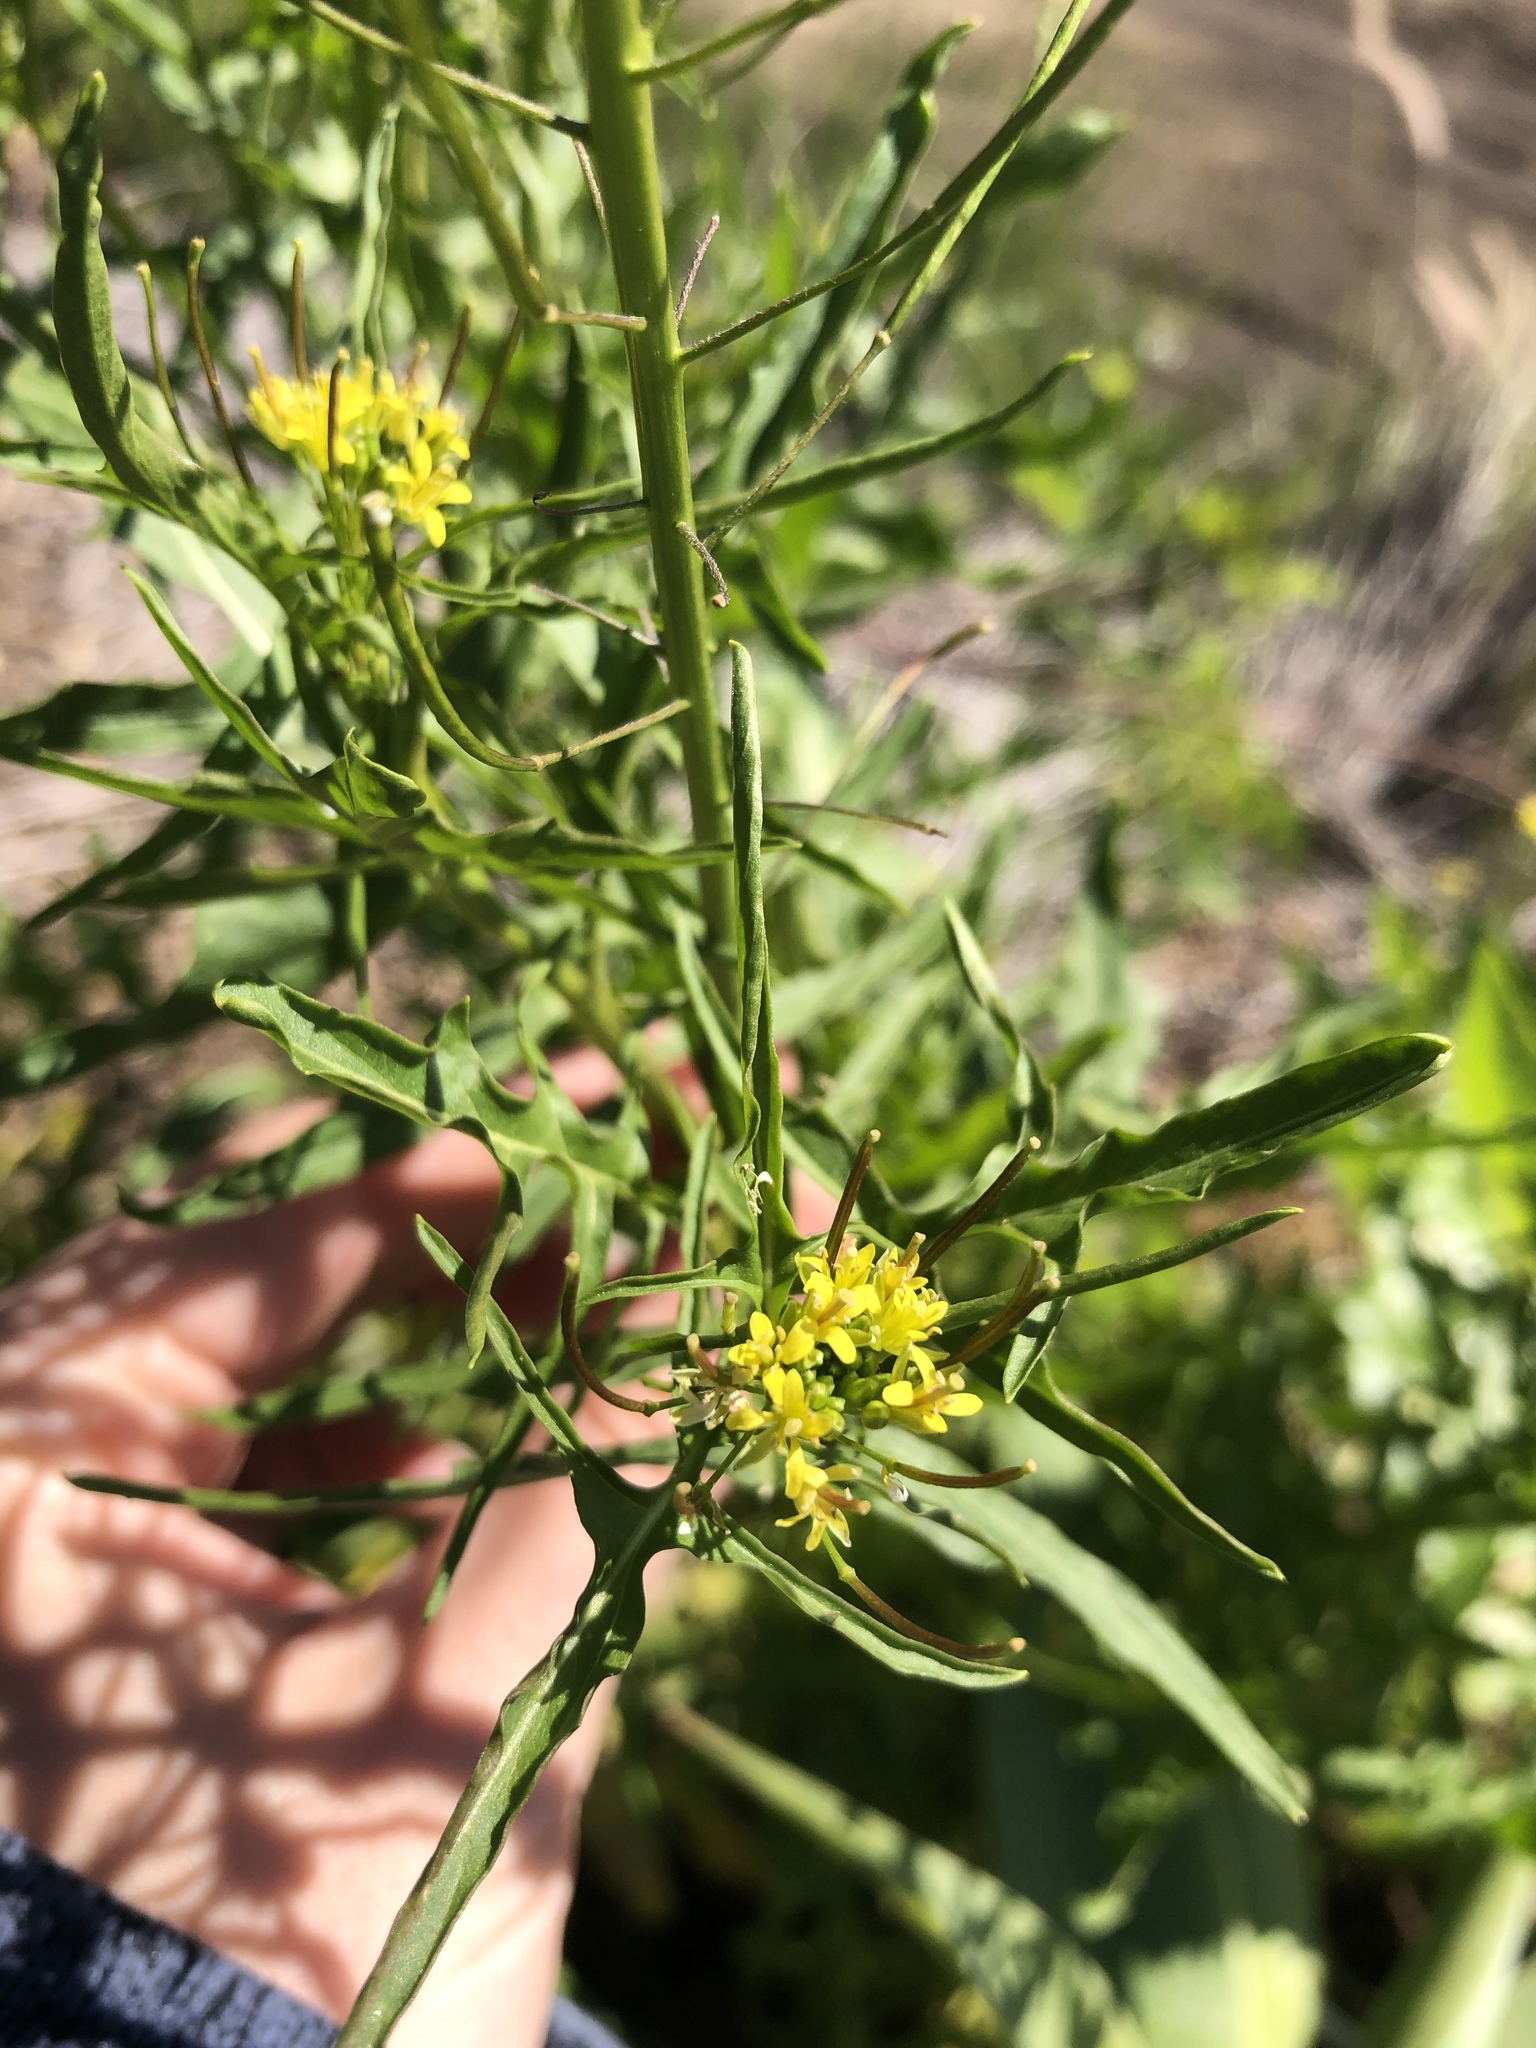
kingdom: Plantae
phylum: Tracheophyta
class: Magnoliopsida
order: Brassicales
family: Brassicaceae
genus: Sisymbrium
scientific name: Sisymbrium irio
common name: London rocket
